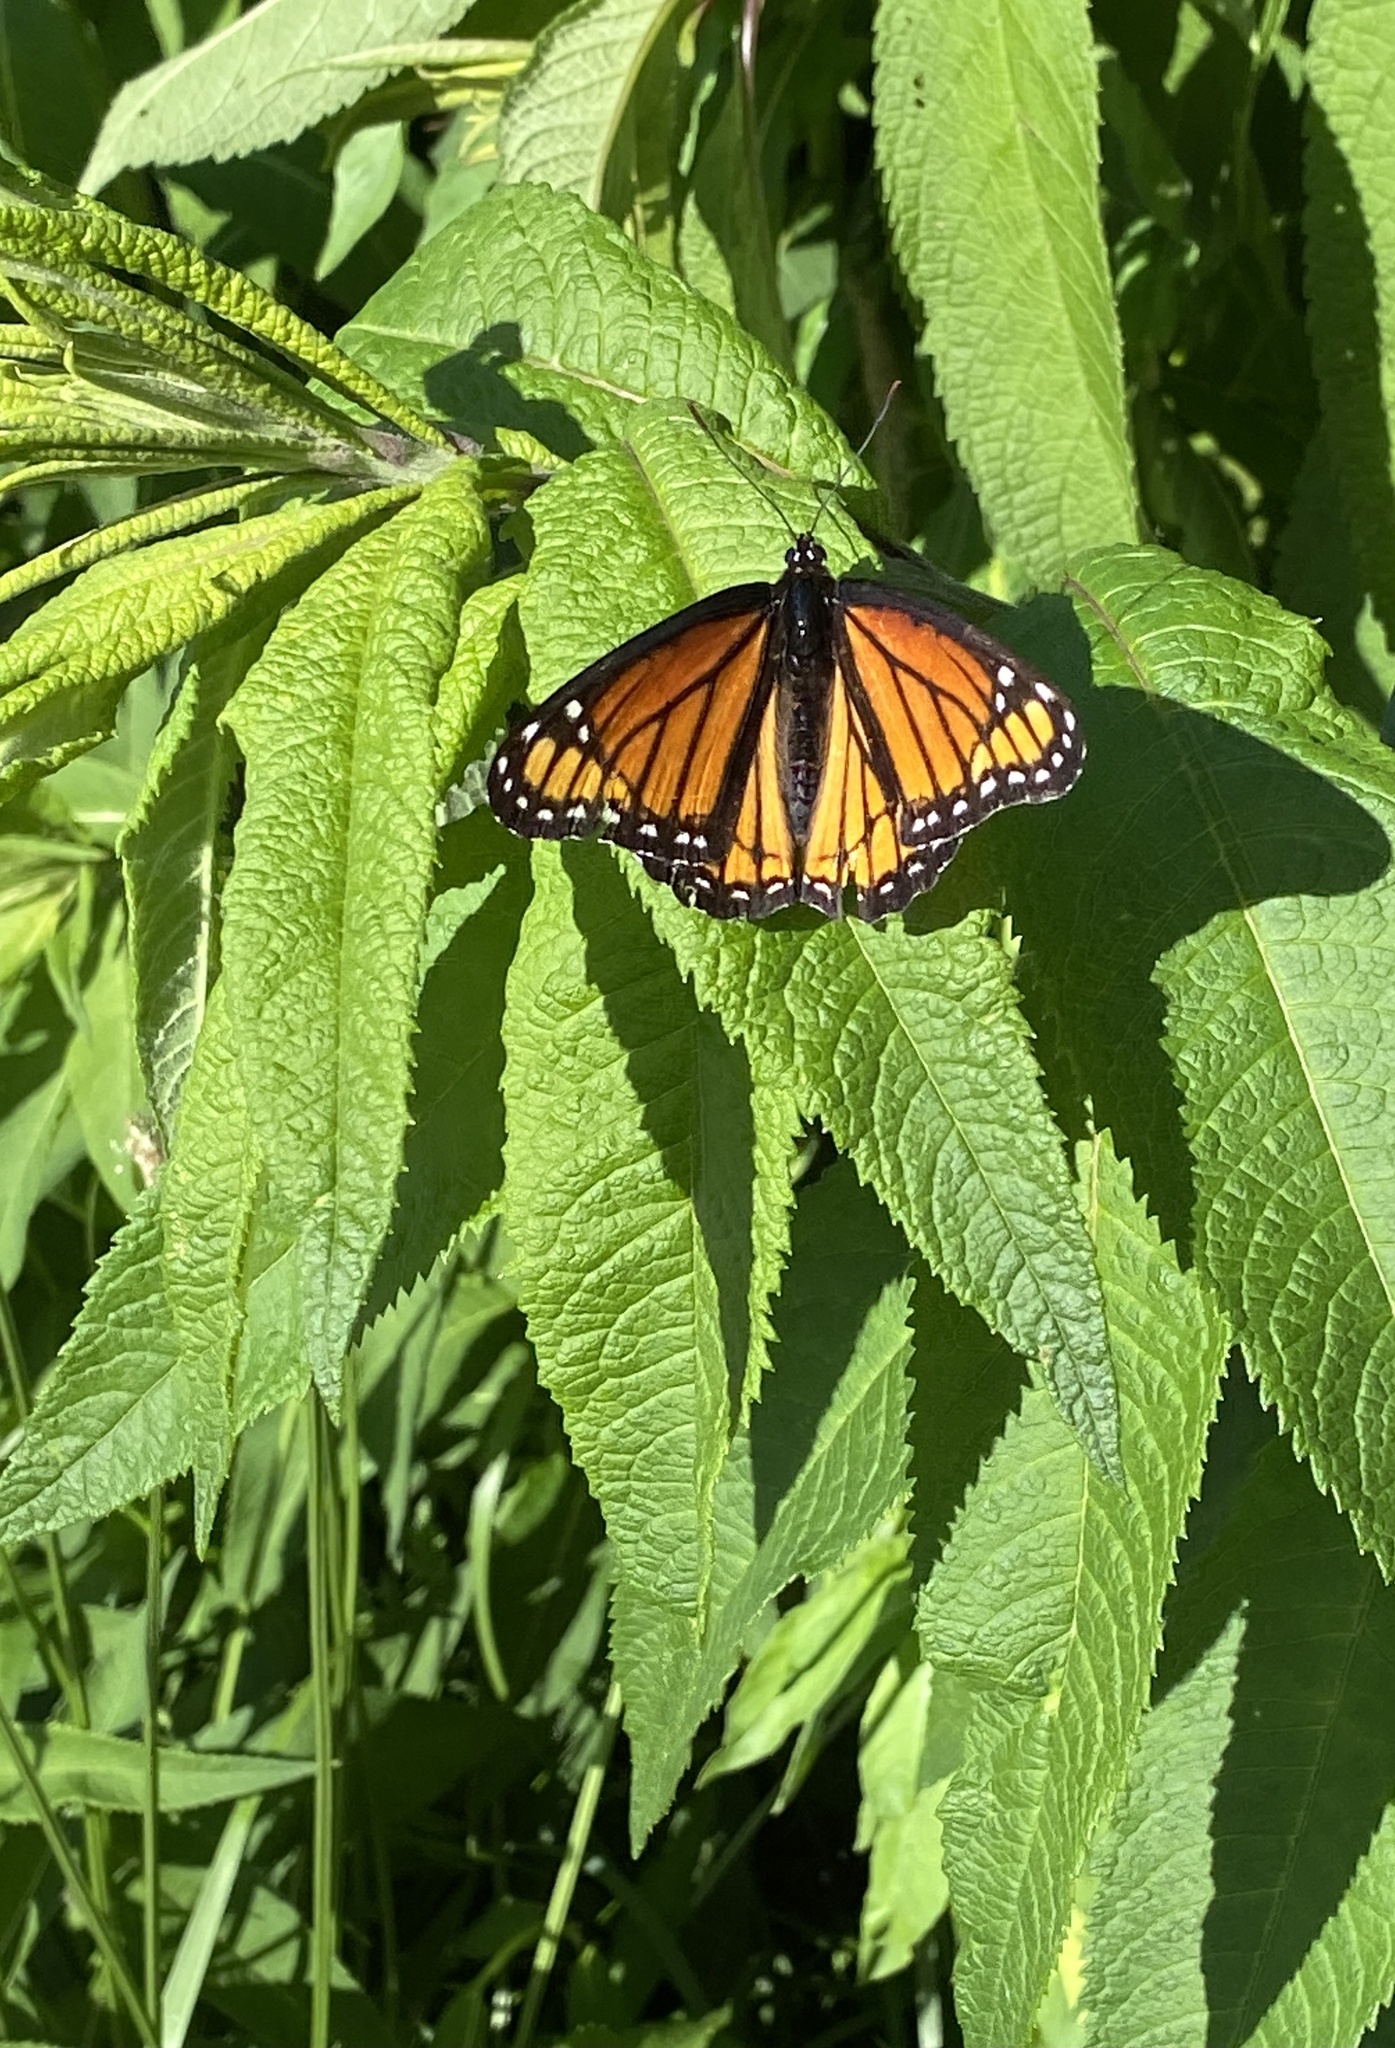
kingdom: Animalia
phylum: Arthropoda
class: Insecta
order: Lepidoptera
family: Nymphalidae
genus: Limenitis
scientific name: Limenitis archippus
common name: Viceroy
